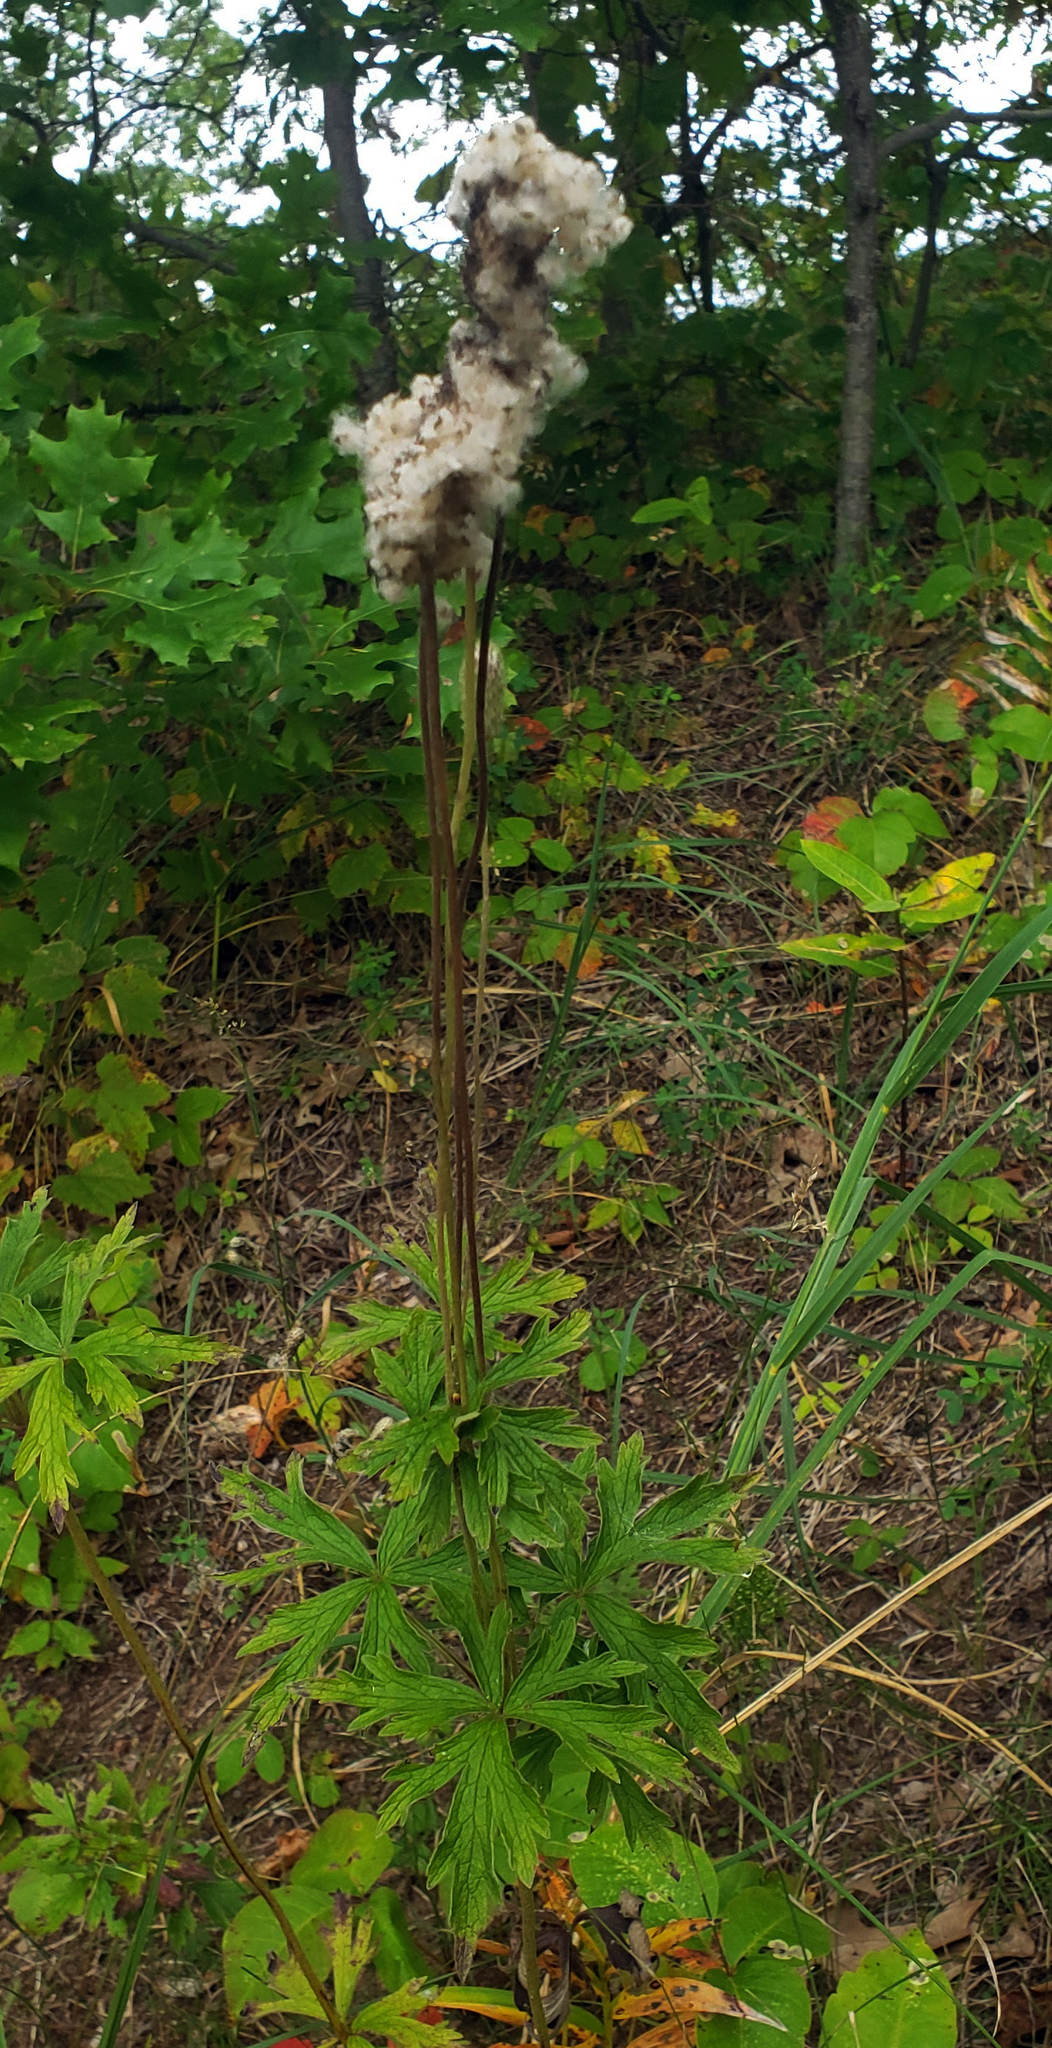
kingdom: Plantae
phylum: Tracheophyta
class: Magnoliopsida
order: Ranunculales
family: Ranunculaceae
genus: Anemone
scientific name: Anemone cylindrica
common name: Candle anemone
